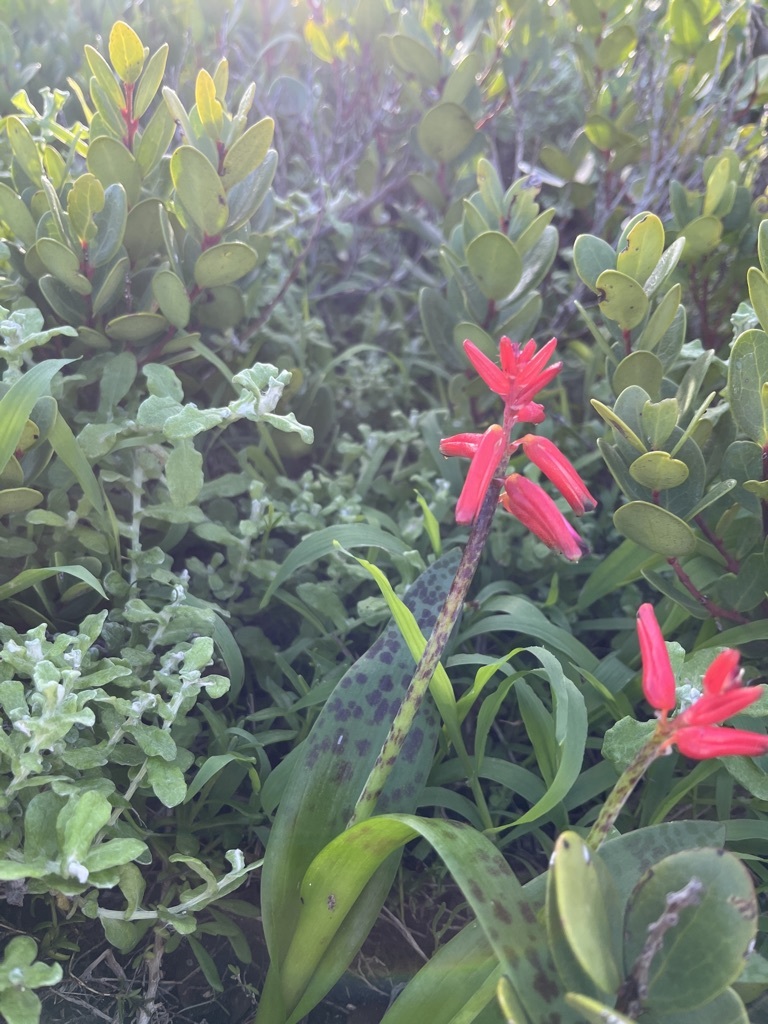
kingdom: Plantae
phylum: Tracheophyta
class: Liliopsida
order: Asparagales
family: Asparagaceae
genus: Lachenalia
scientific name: Lachenalia bulbifera
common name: Red lachenalia
